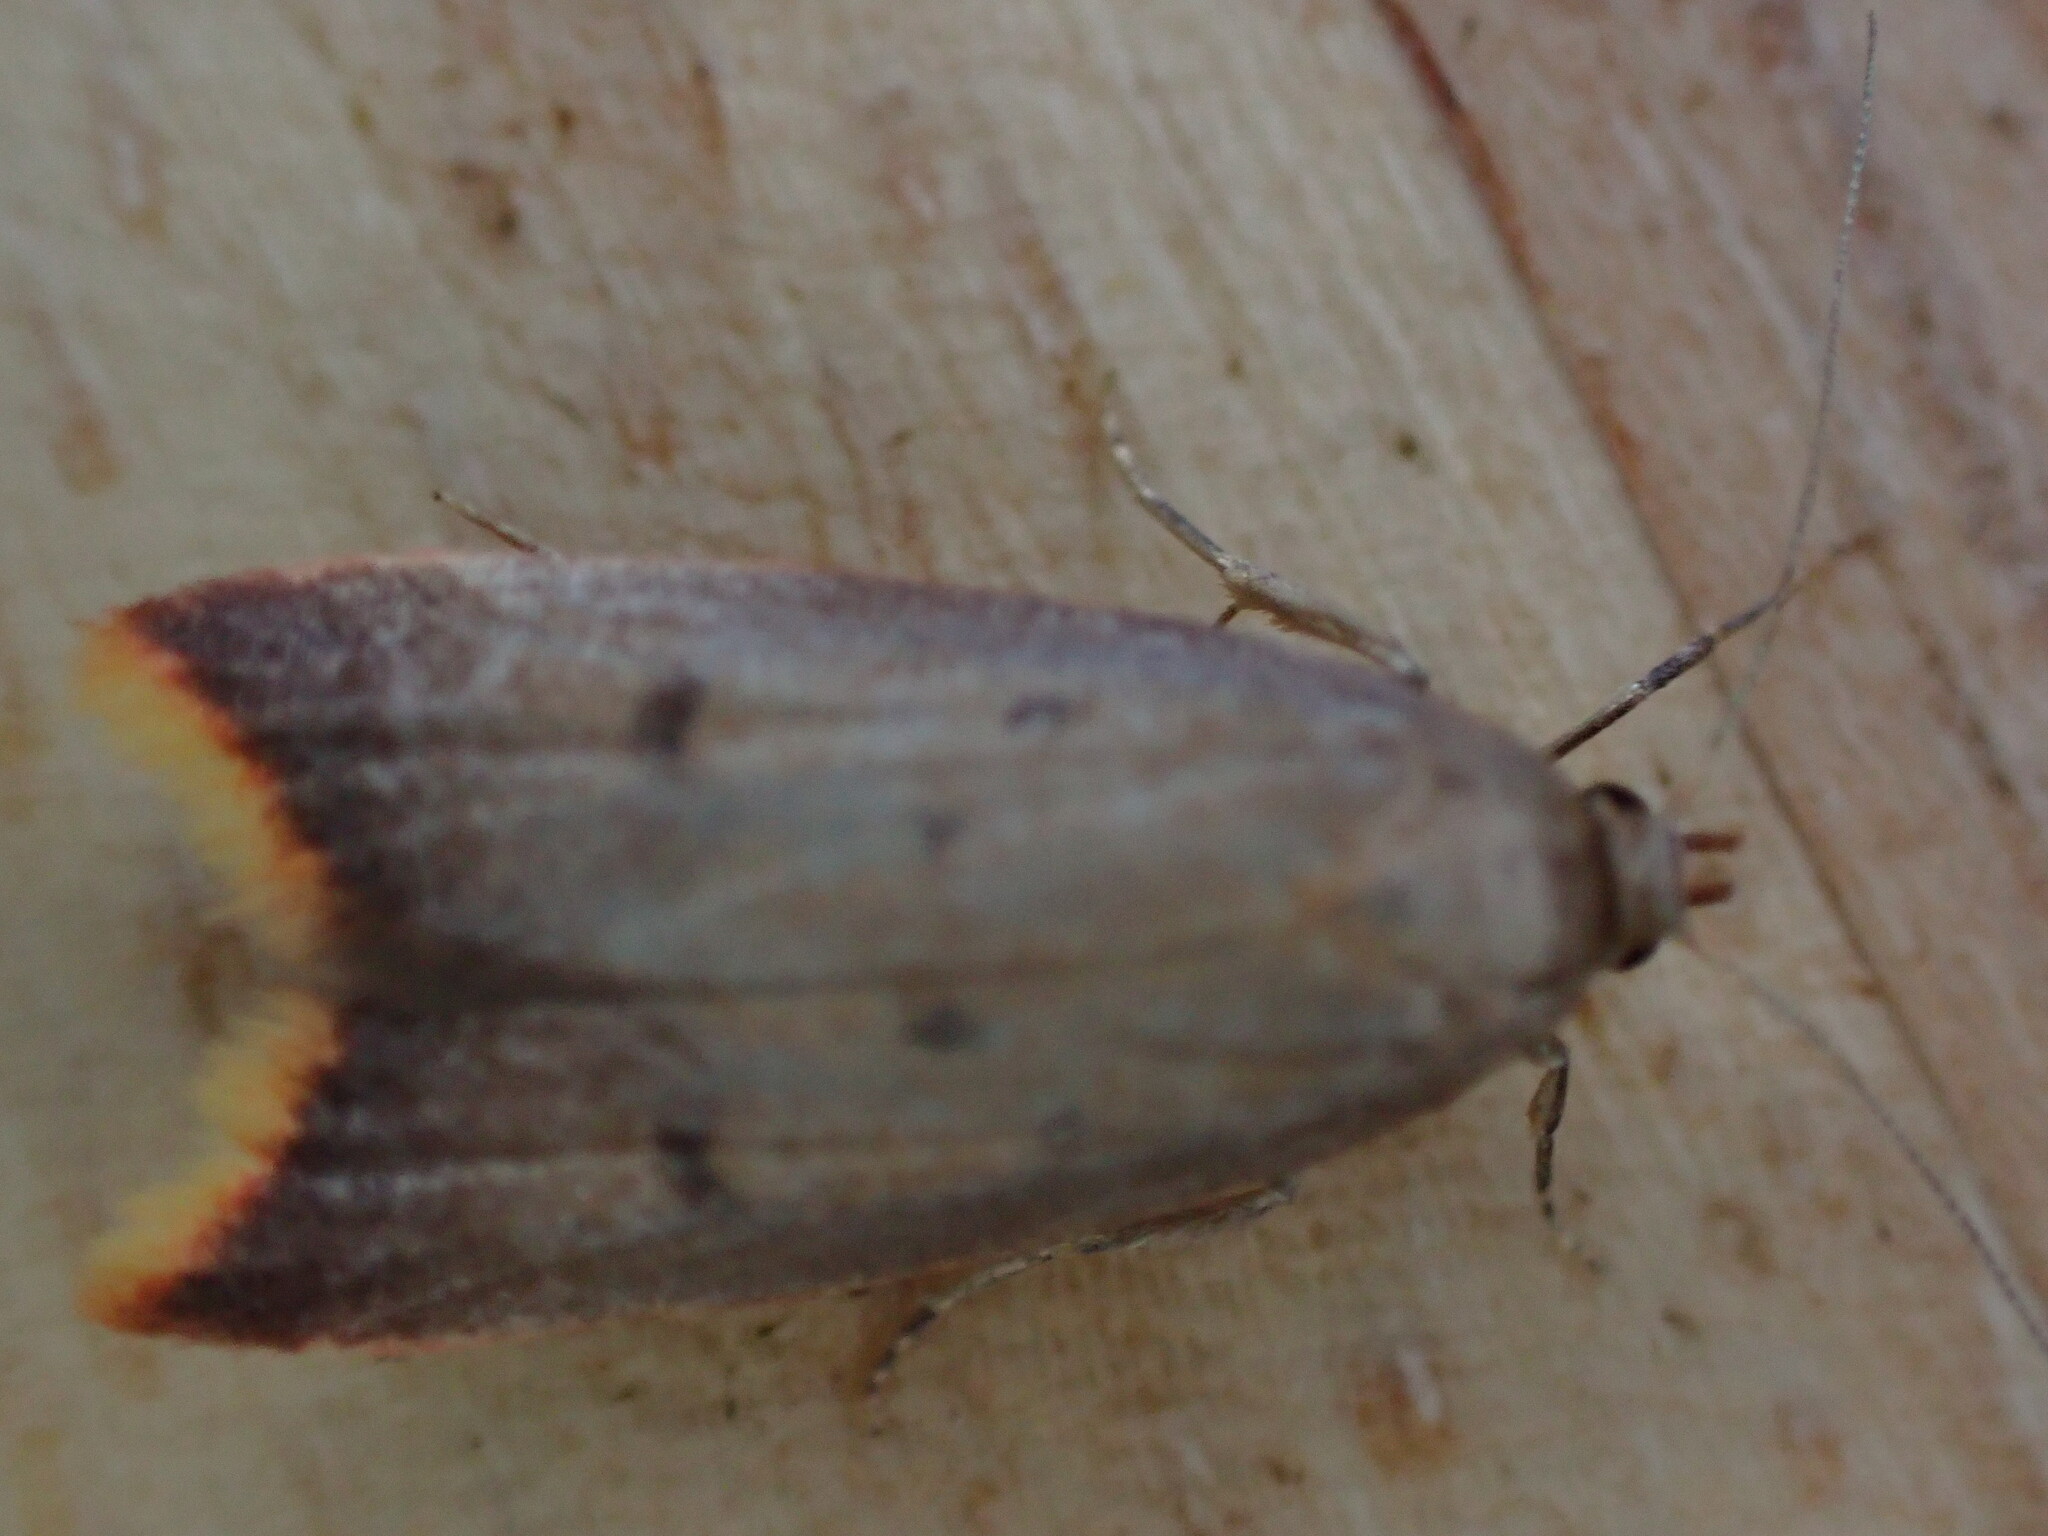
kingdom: Animalia
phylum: Arthropoda
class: Insecta
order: Lepidoptera
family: Oecophoridae
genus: Tachystola
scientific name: Tachystola acroxantha
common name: Ruddy streak
